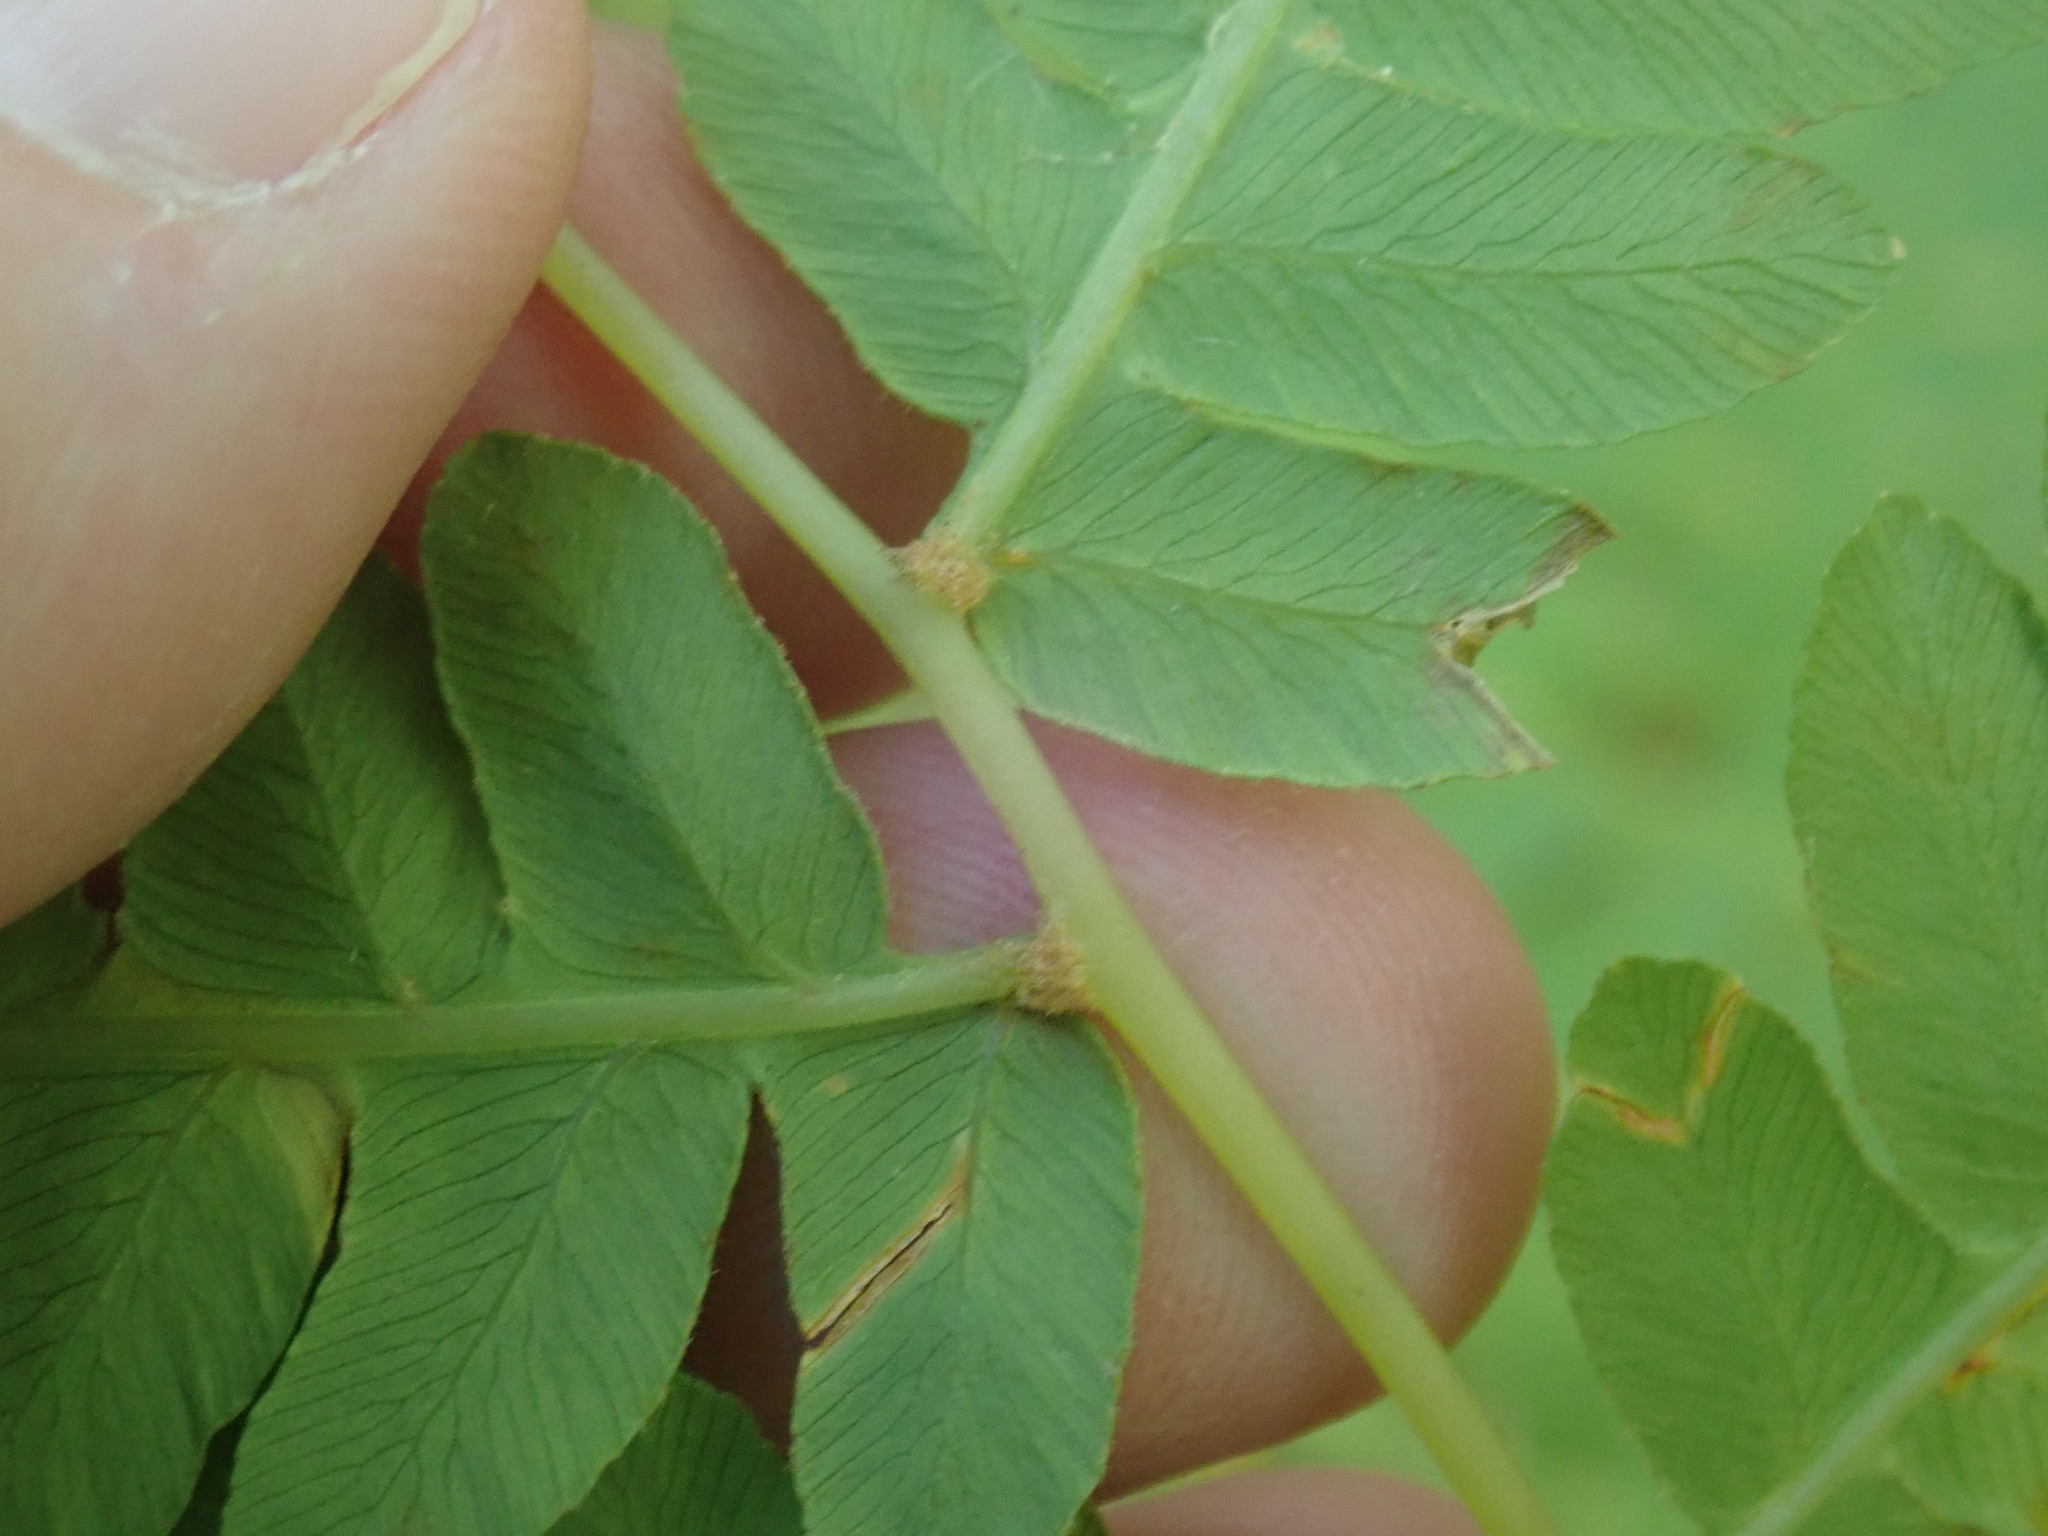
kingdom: Plantae
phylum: Tracheophyta
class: Polypodiopsida
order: Osmundales
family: Osmundaceae
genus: Osmundastrum
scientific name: Osmundastrum cinnamomeum
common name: Cinnamon fern
